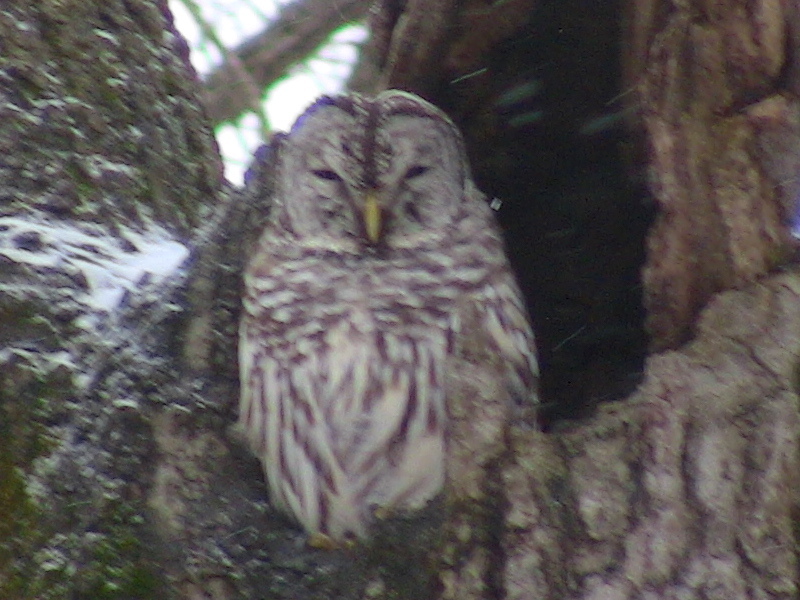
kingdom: Animalia
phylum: Chordata
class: Aves
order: Strigiformes
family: Strigidae
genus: Strix
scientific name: Strix varia
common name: Barred owl
